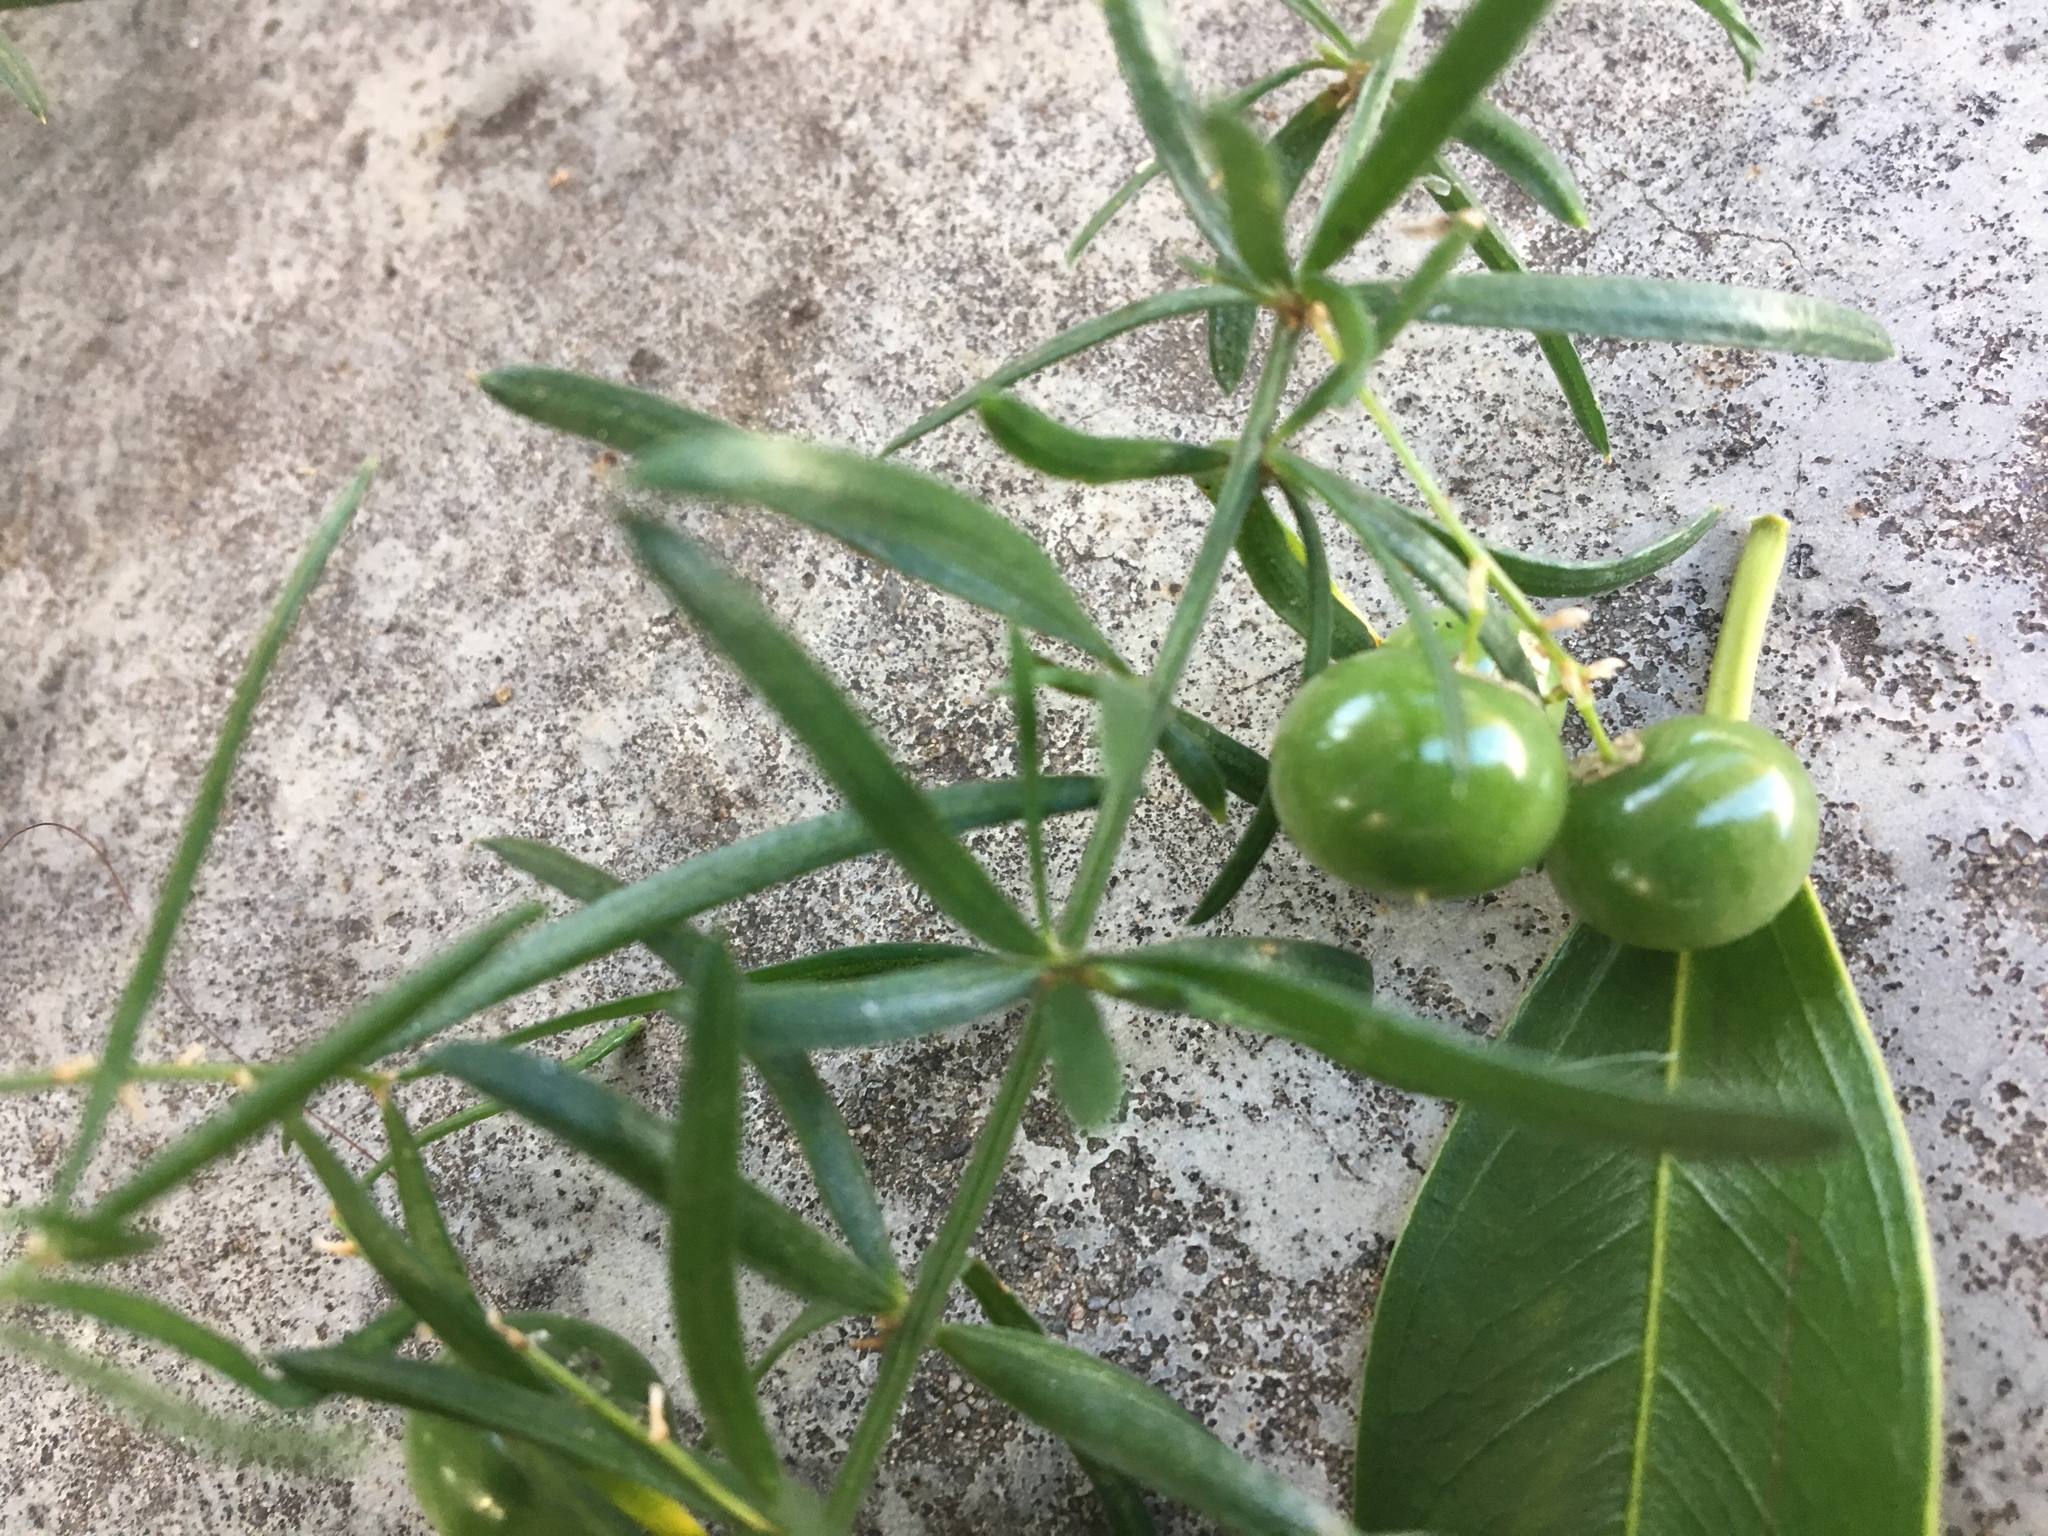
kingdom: Plantae
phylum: Tracheophyta
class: Liliopsida
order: Asparagales
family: Asparagaceae
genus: Asparagus
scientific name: Asparagus aethiopicus
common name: Sprenger's asparagus fern
